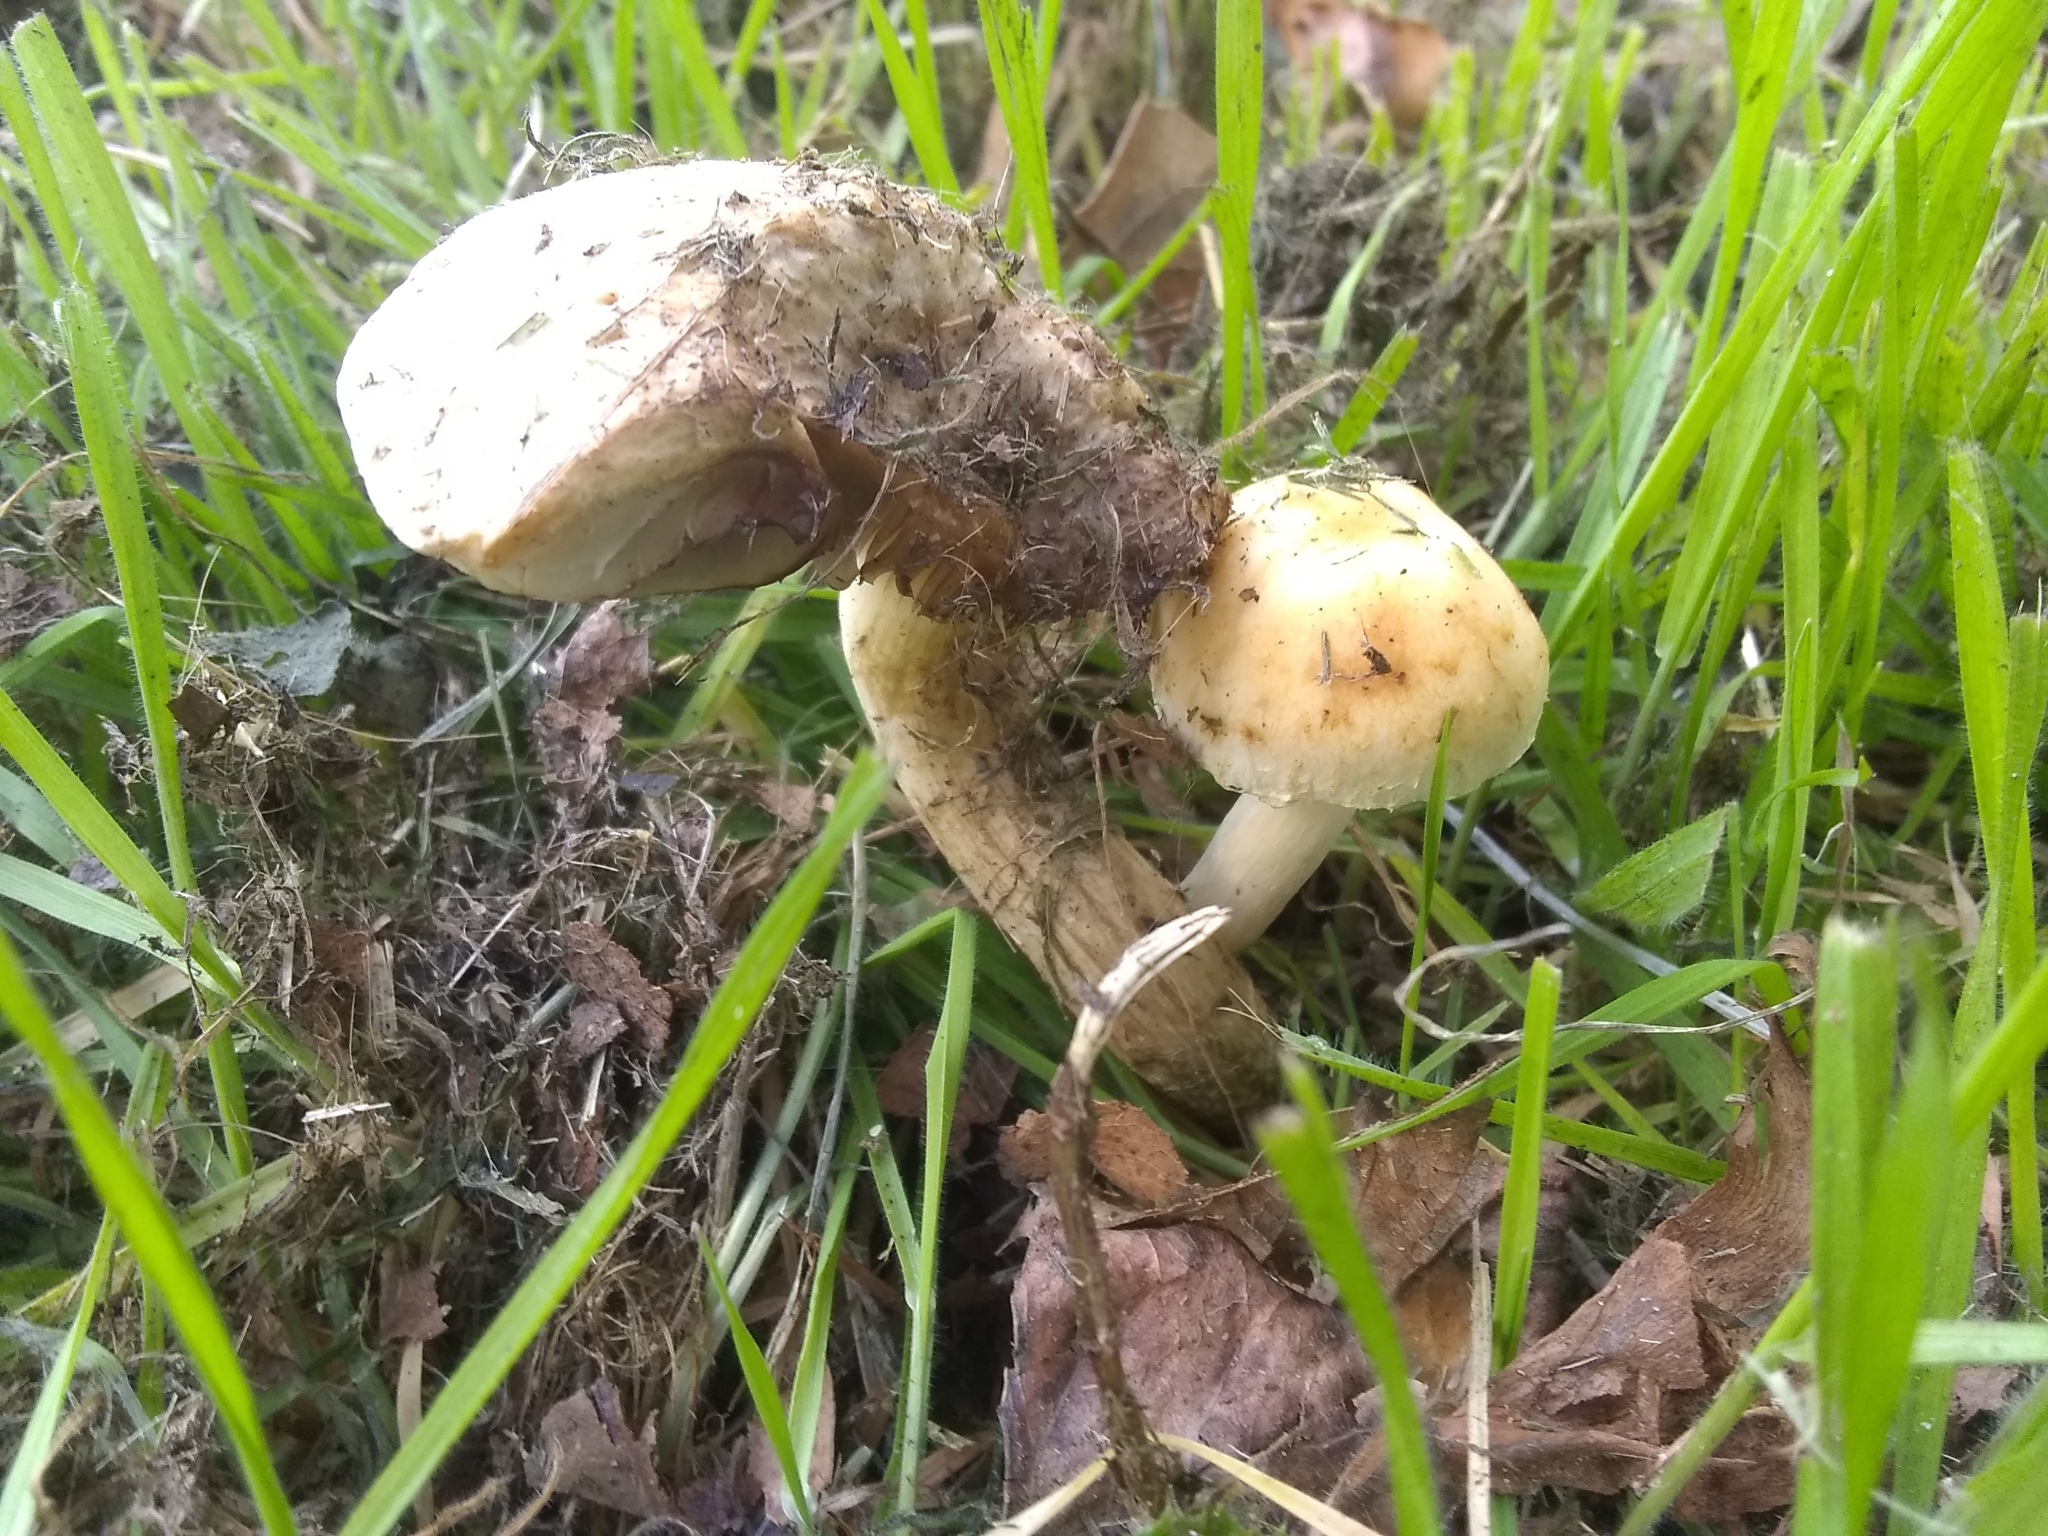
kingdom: Fungi
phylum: Basidiomycota
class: Agaricomycetes
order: Agaricales
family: Strophariaceae
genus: Leratiomyces
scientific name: Leratiomyces percevalii
